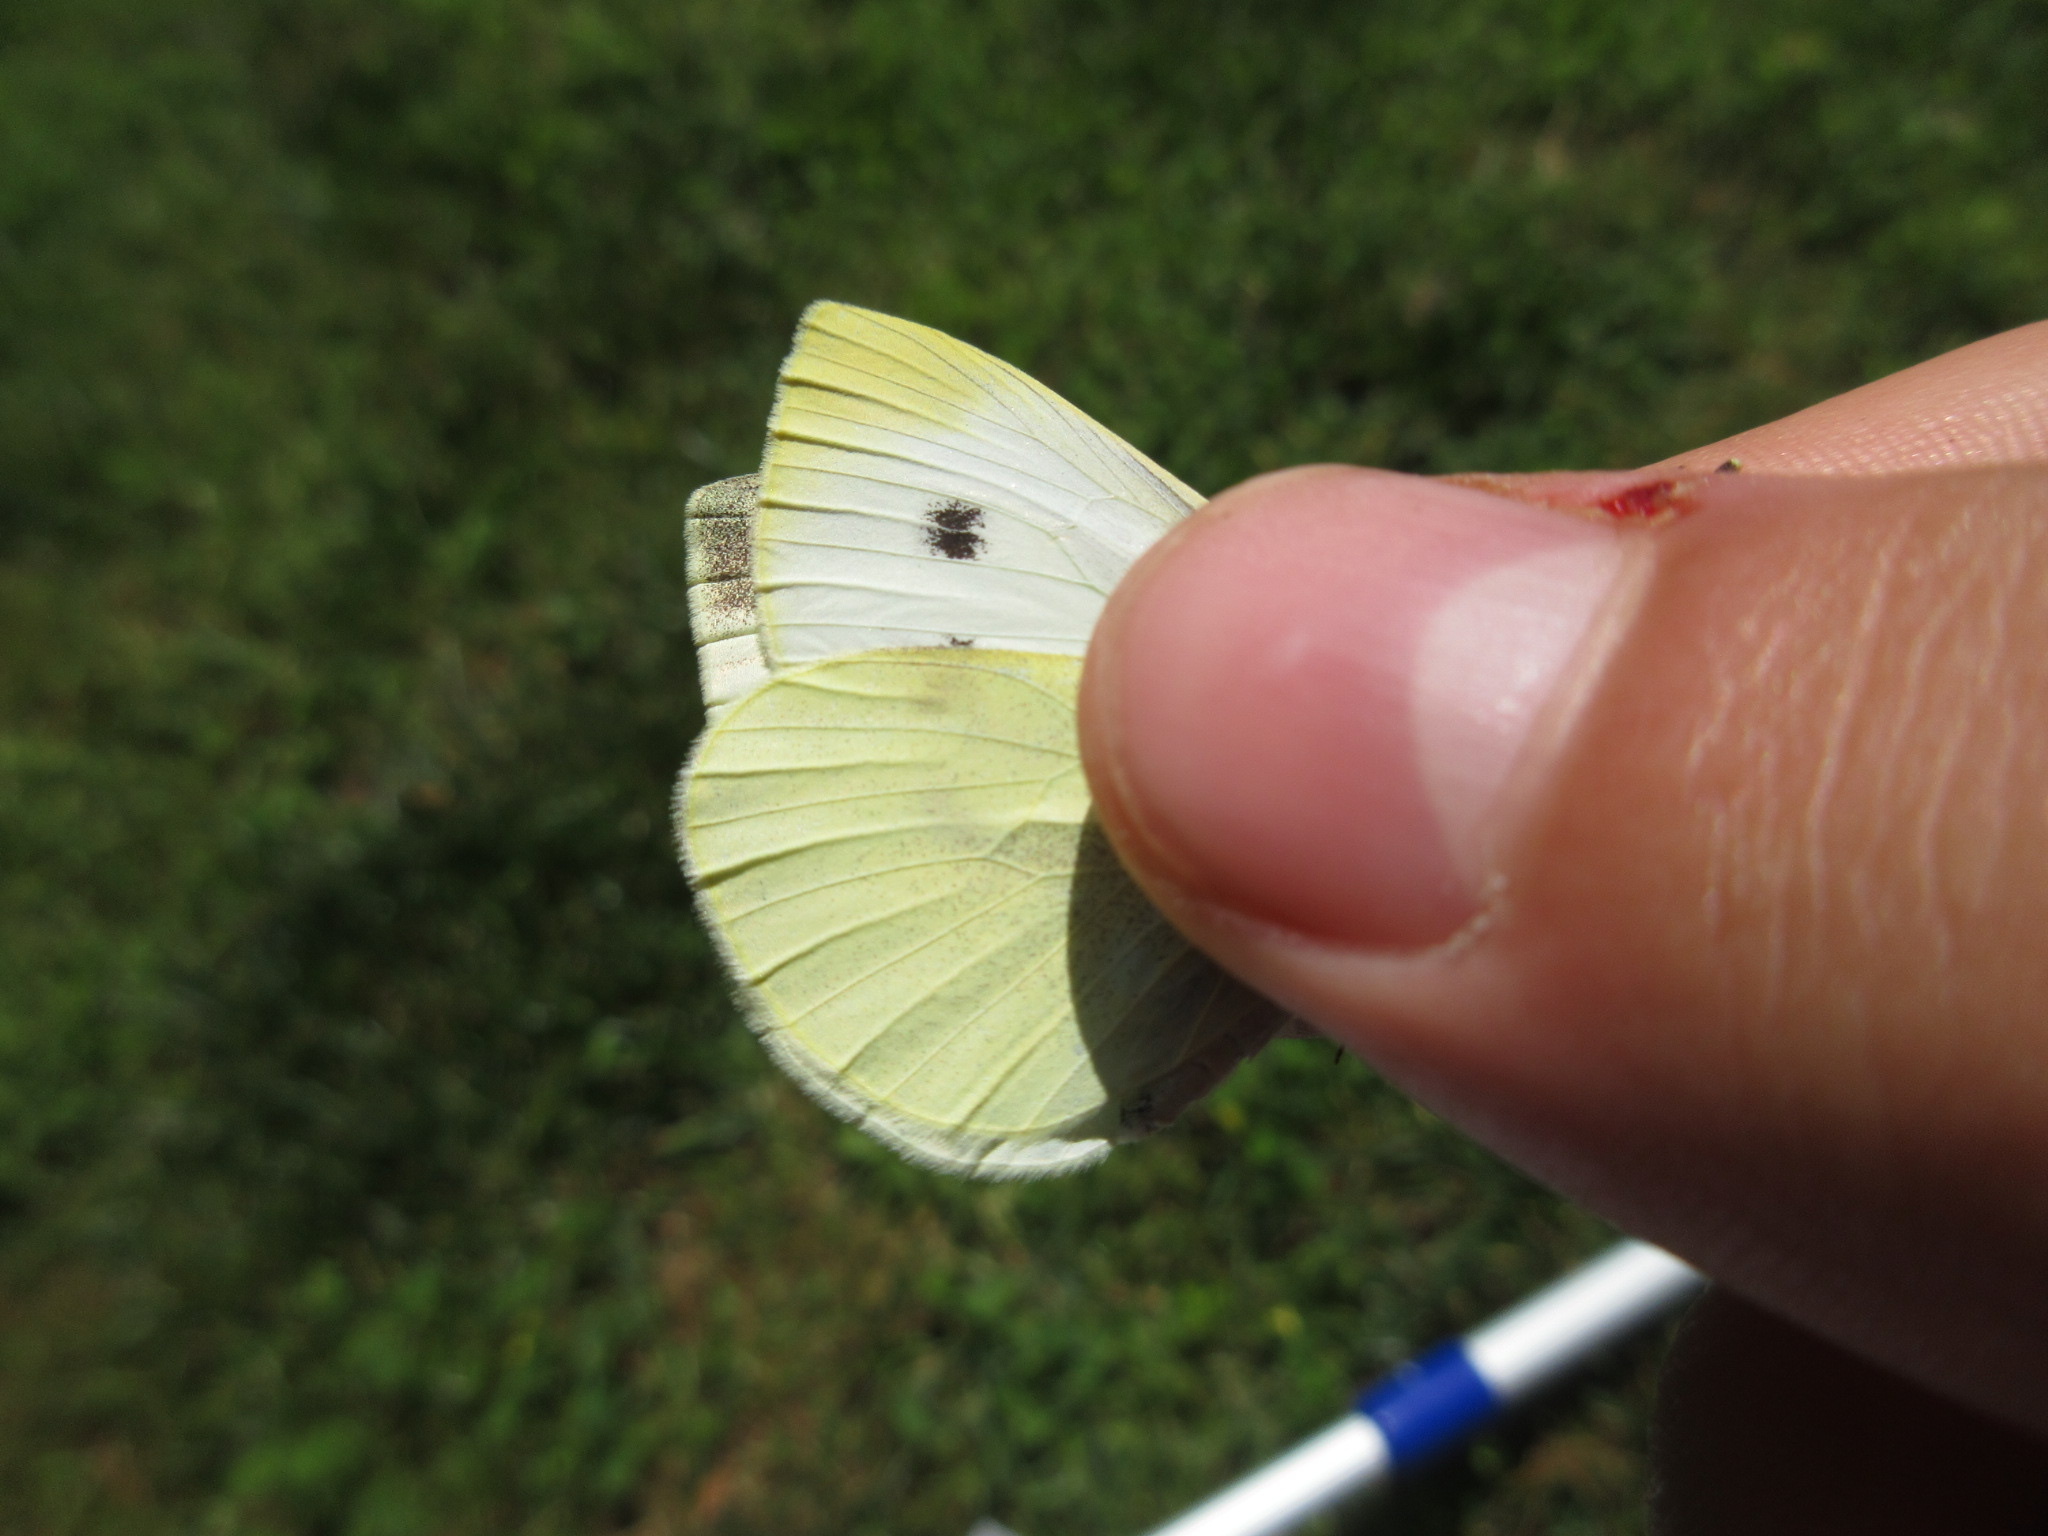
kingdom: Animalia
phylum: Arthropoda
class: Insecta
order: Lepidoptera
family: Pieridae
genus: Pieris
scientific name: Pieris rapae
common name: Small white
